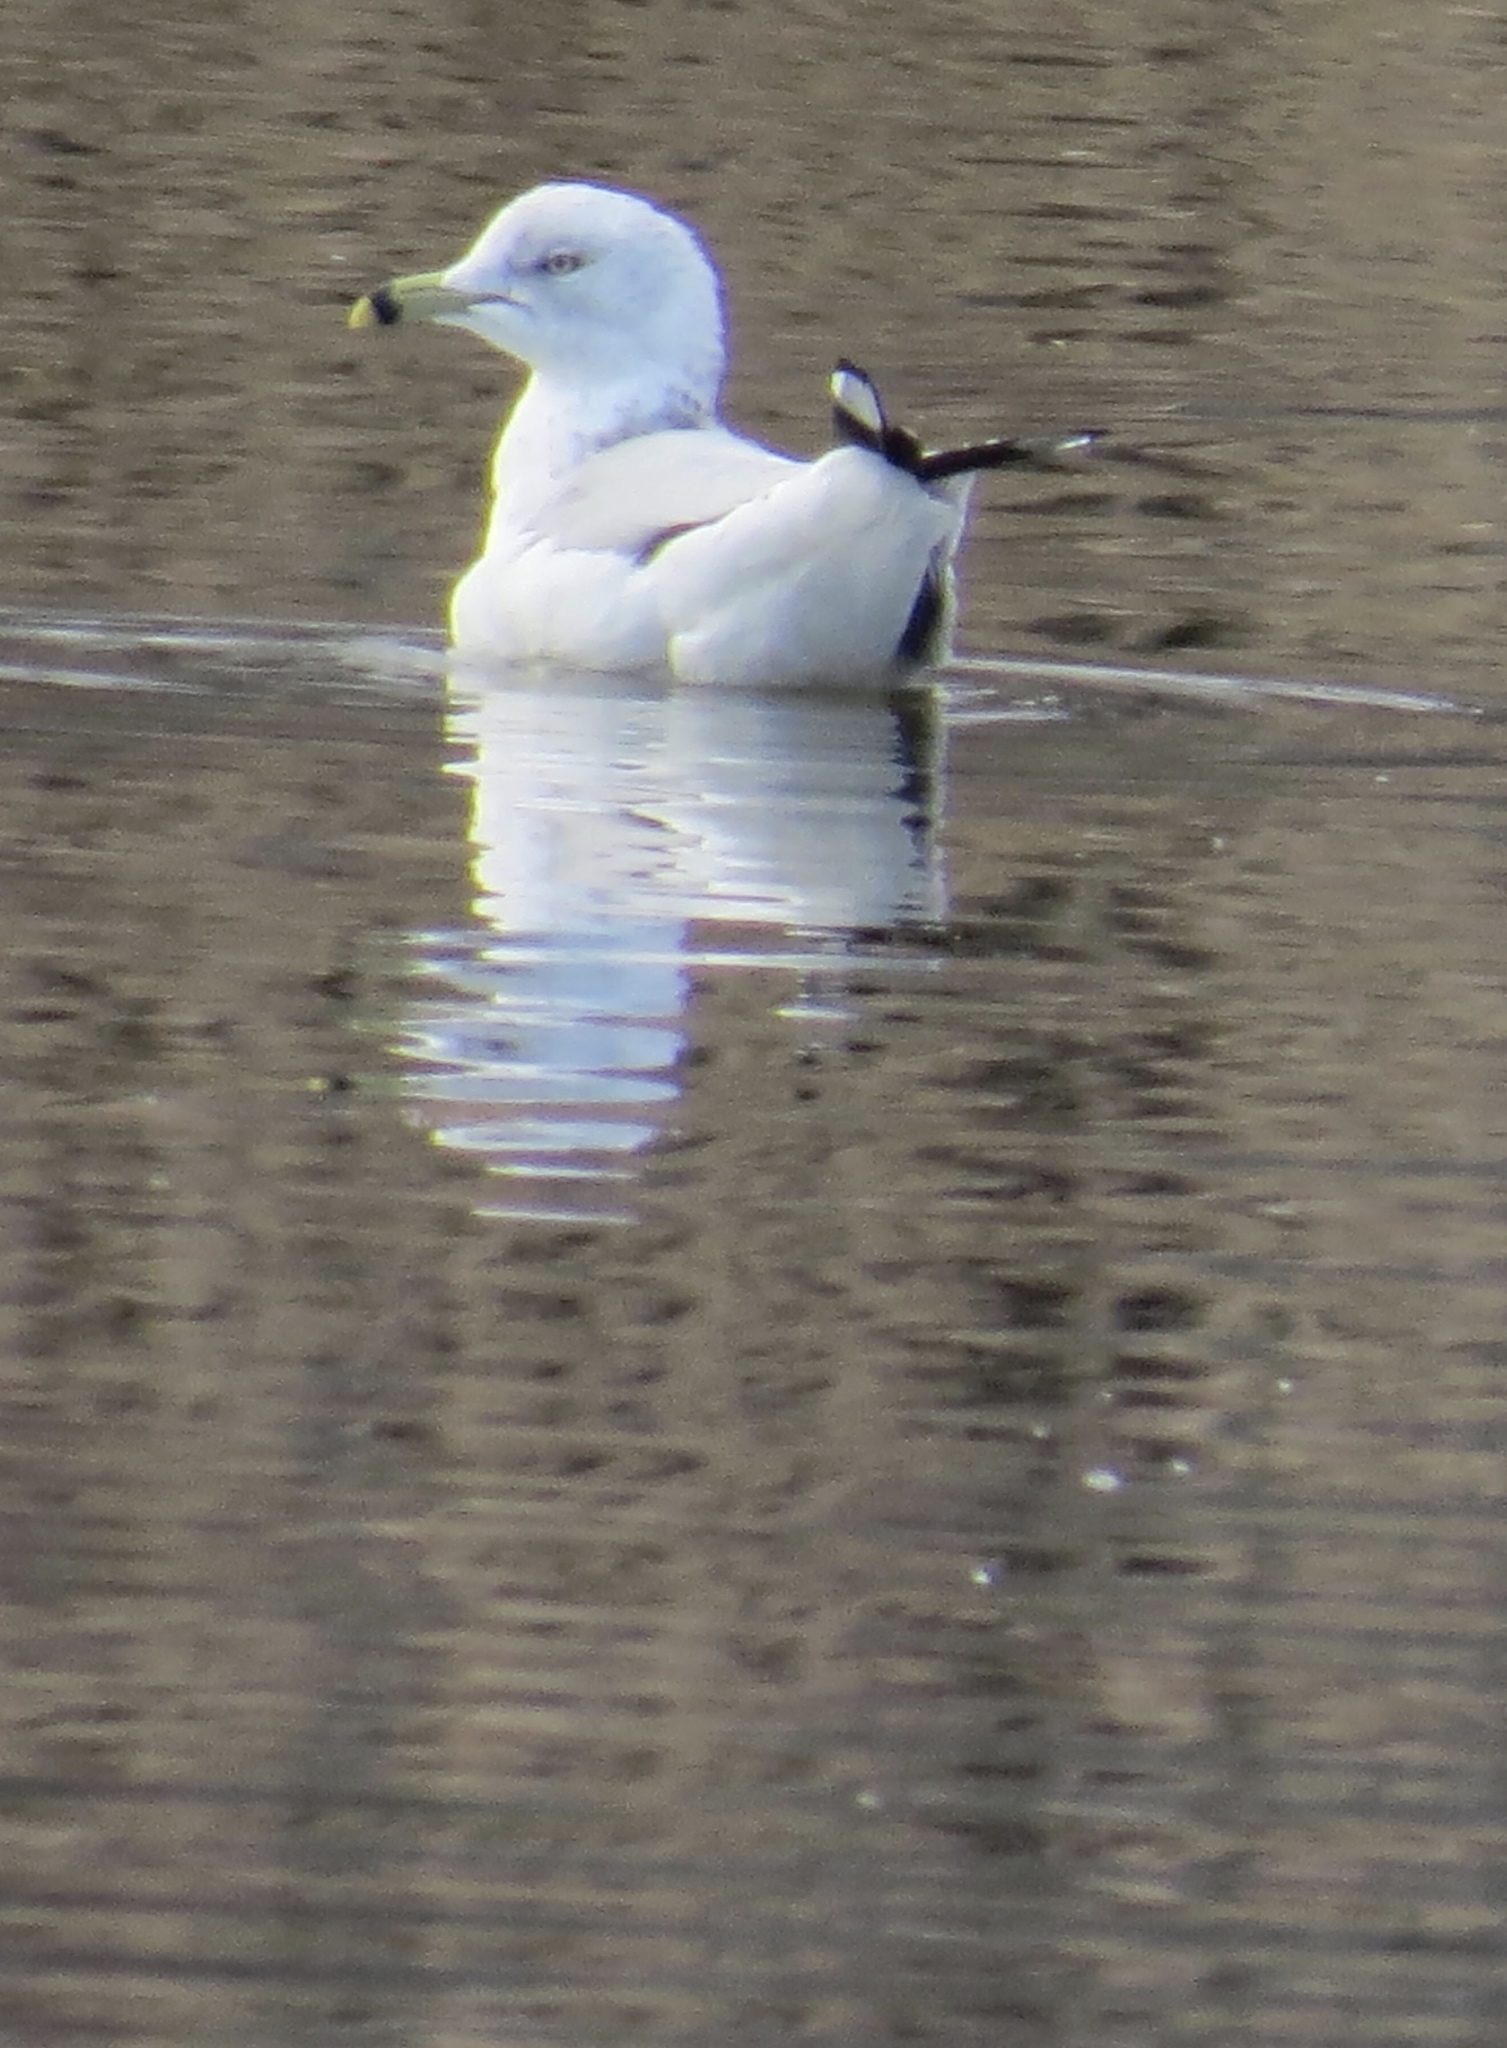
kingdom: Animalia
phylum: Chordata
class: Aves
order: Charadriiformes
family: Laridae
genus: Larus
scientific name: Larus delawarensis
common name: Ring-billed gull
